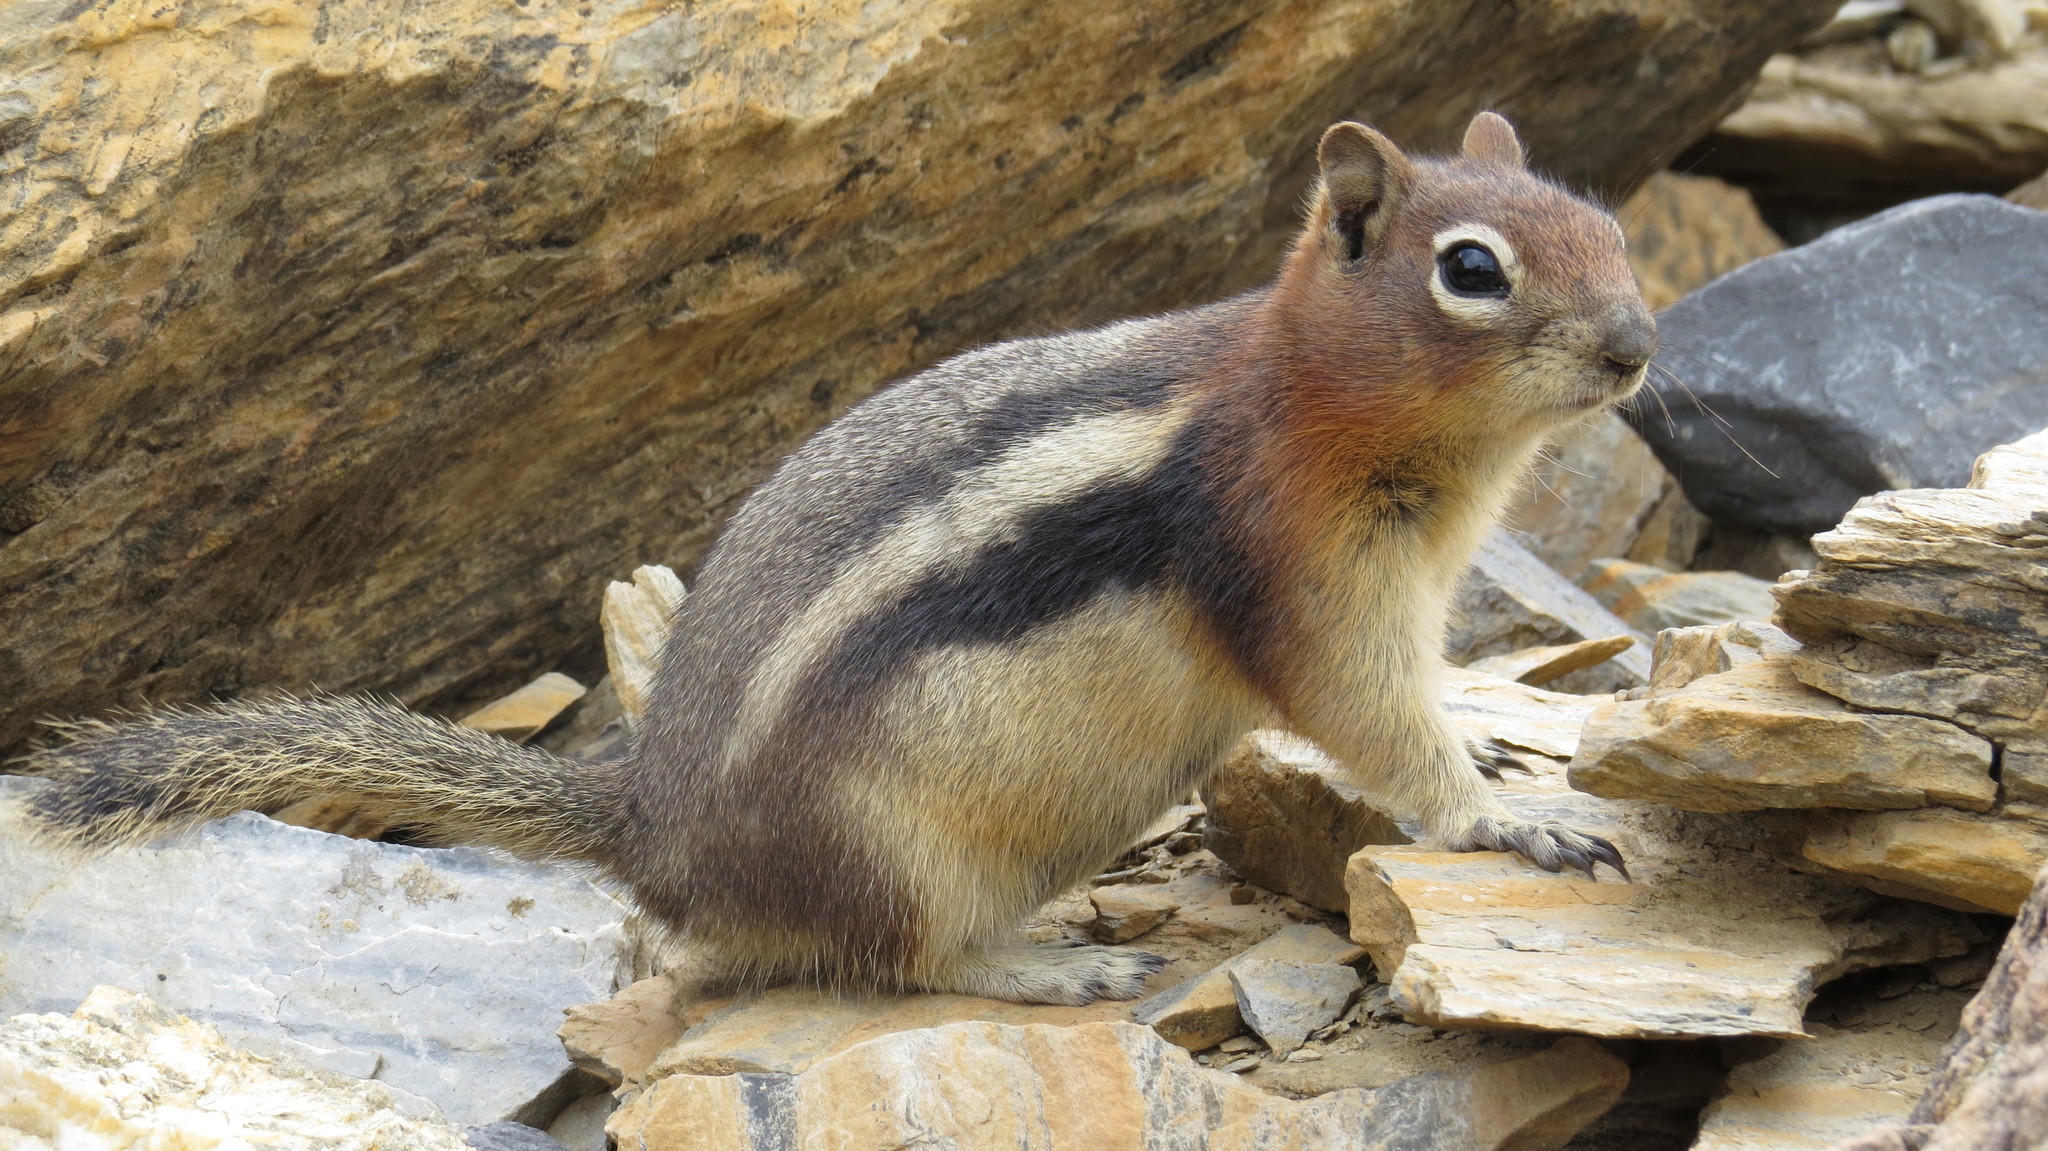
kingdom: Animalia
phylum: Chordata
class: Mammalia
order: Rodentia
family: Sciuridae
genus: Callospermophilus
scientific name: Callospermophilus lateralis
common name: Golden-mantled ground squirrel
